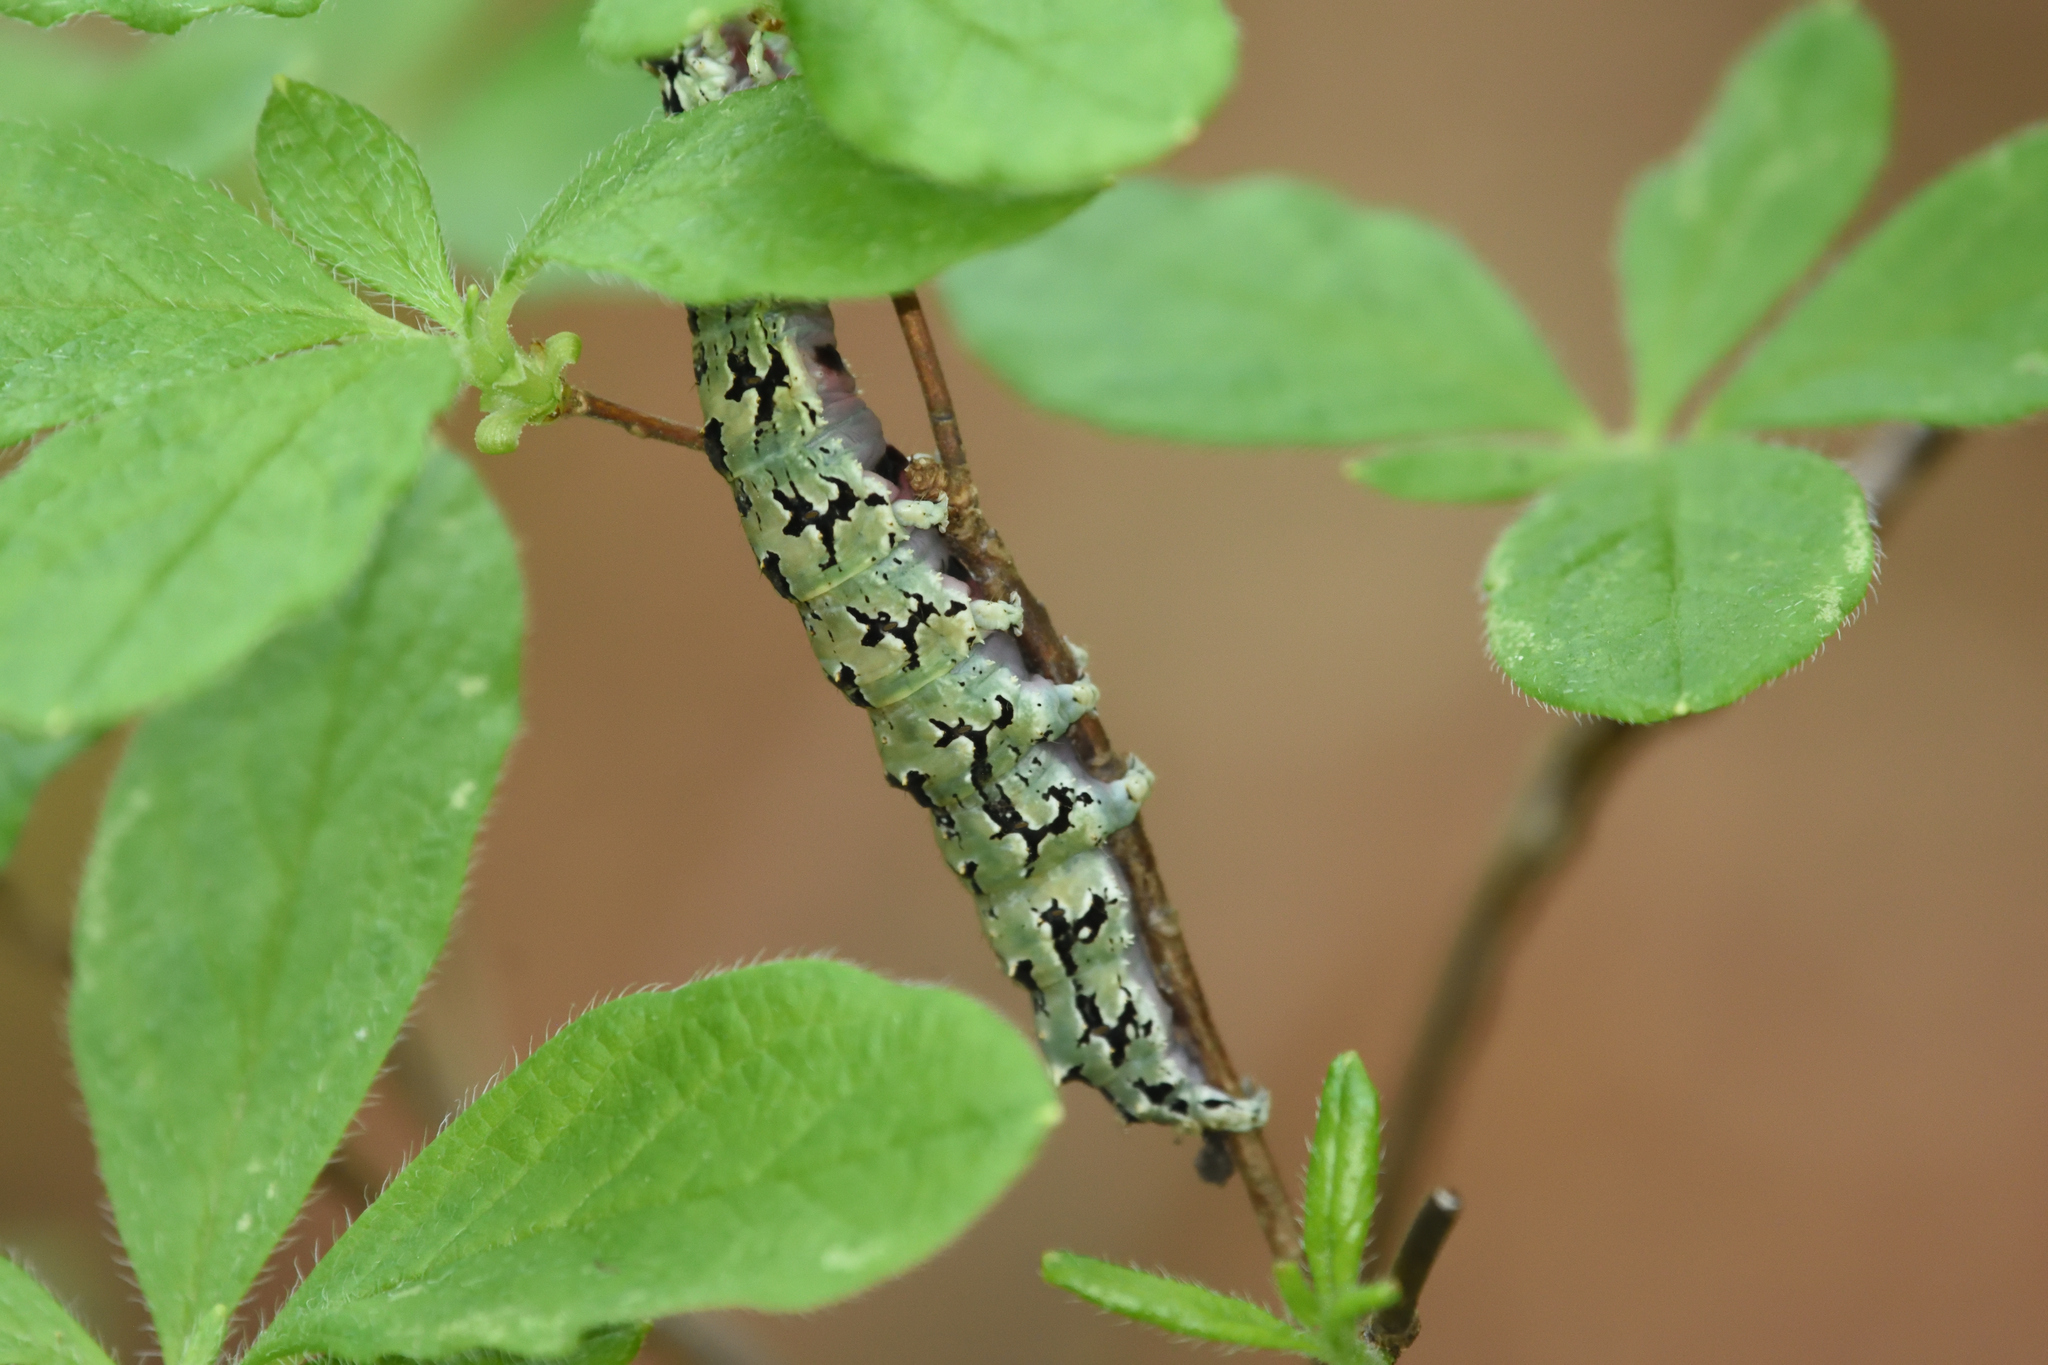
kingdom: Animalia
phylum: Arthropoda
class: Insecta
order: Lepidoptera
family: Erebidae
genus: Catocala
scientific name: Catocala ilia
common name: Ilia underwing
